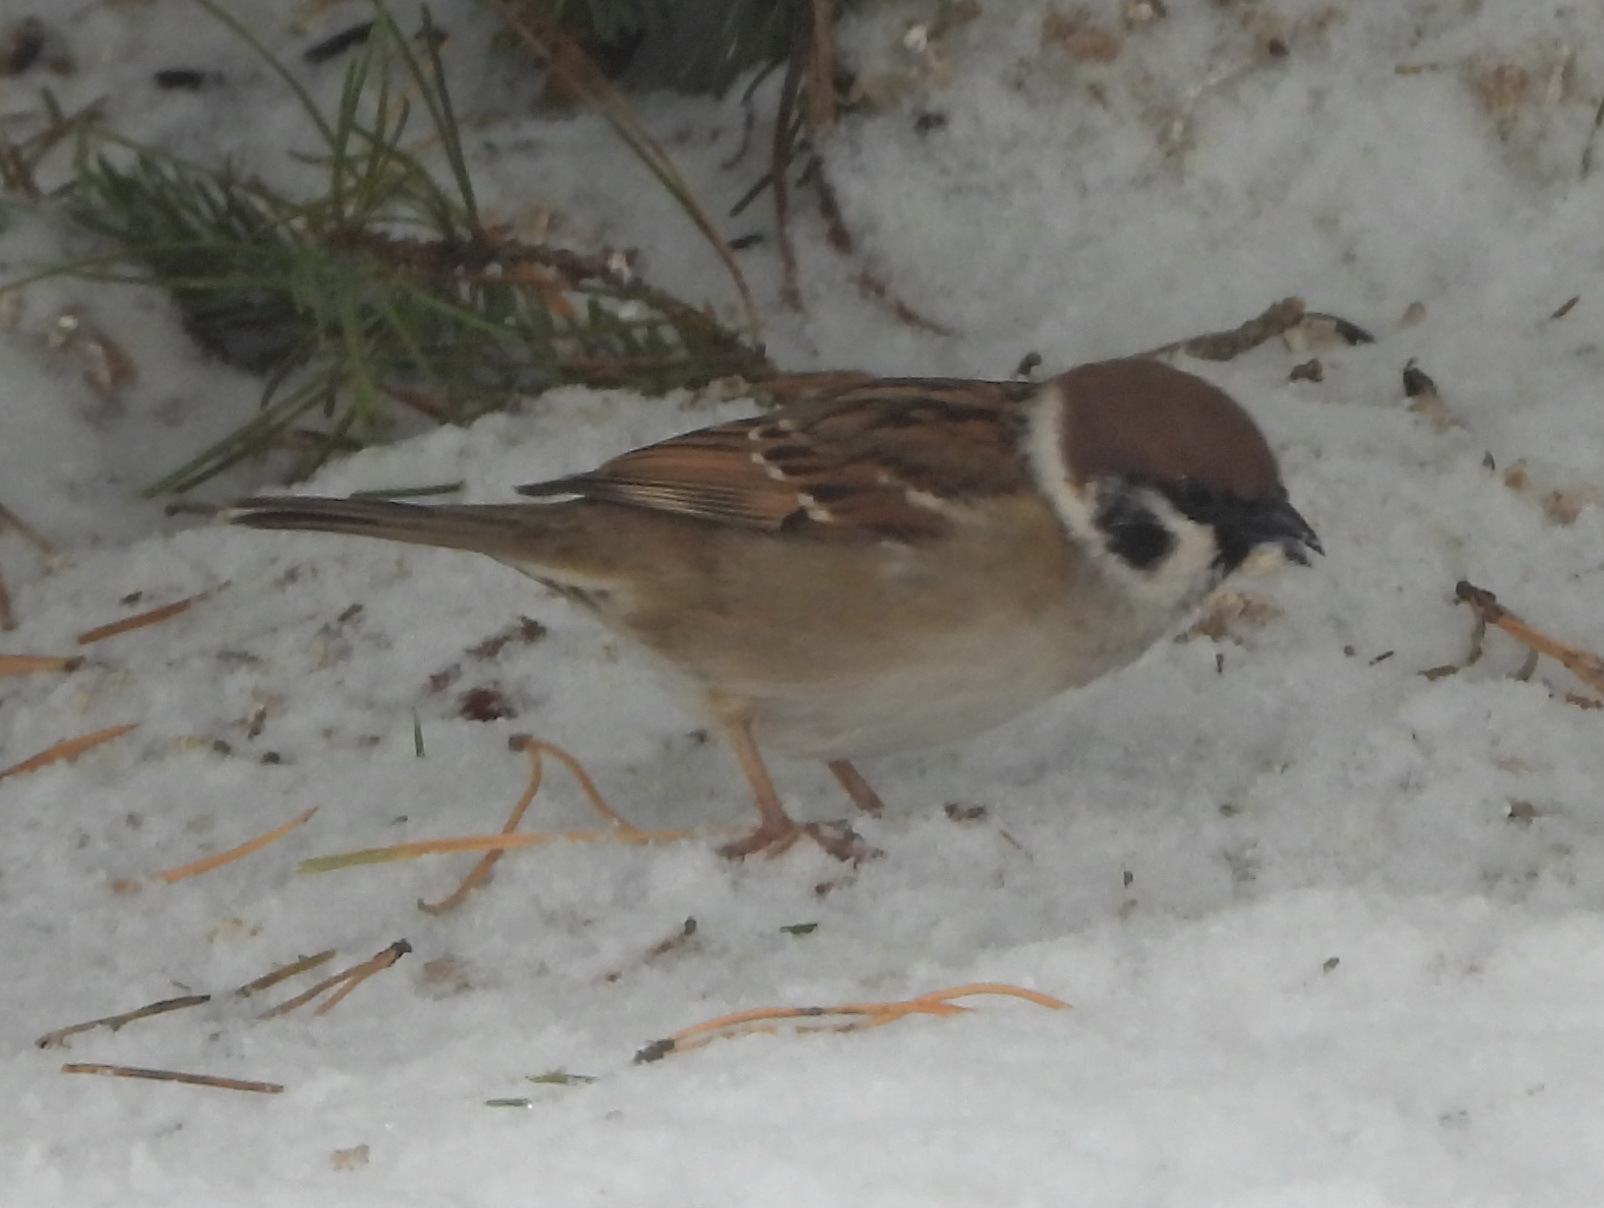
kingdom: Animalia
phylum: Chordata
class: Aves
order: Passeriformes
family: Passeridae
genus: Passer
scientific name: Passer montanus
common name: Eurasian tree sparrow
